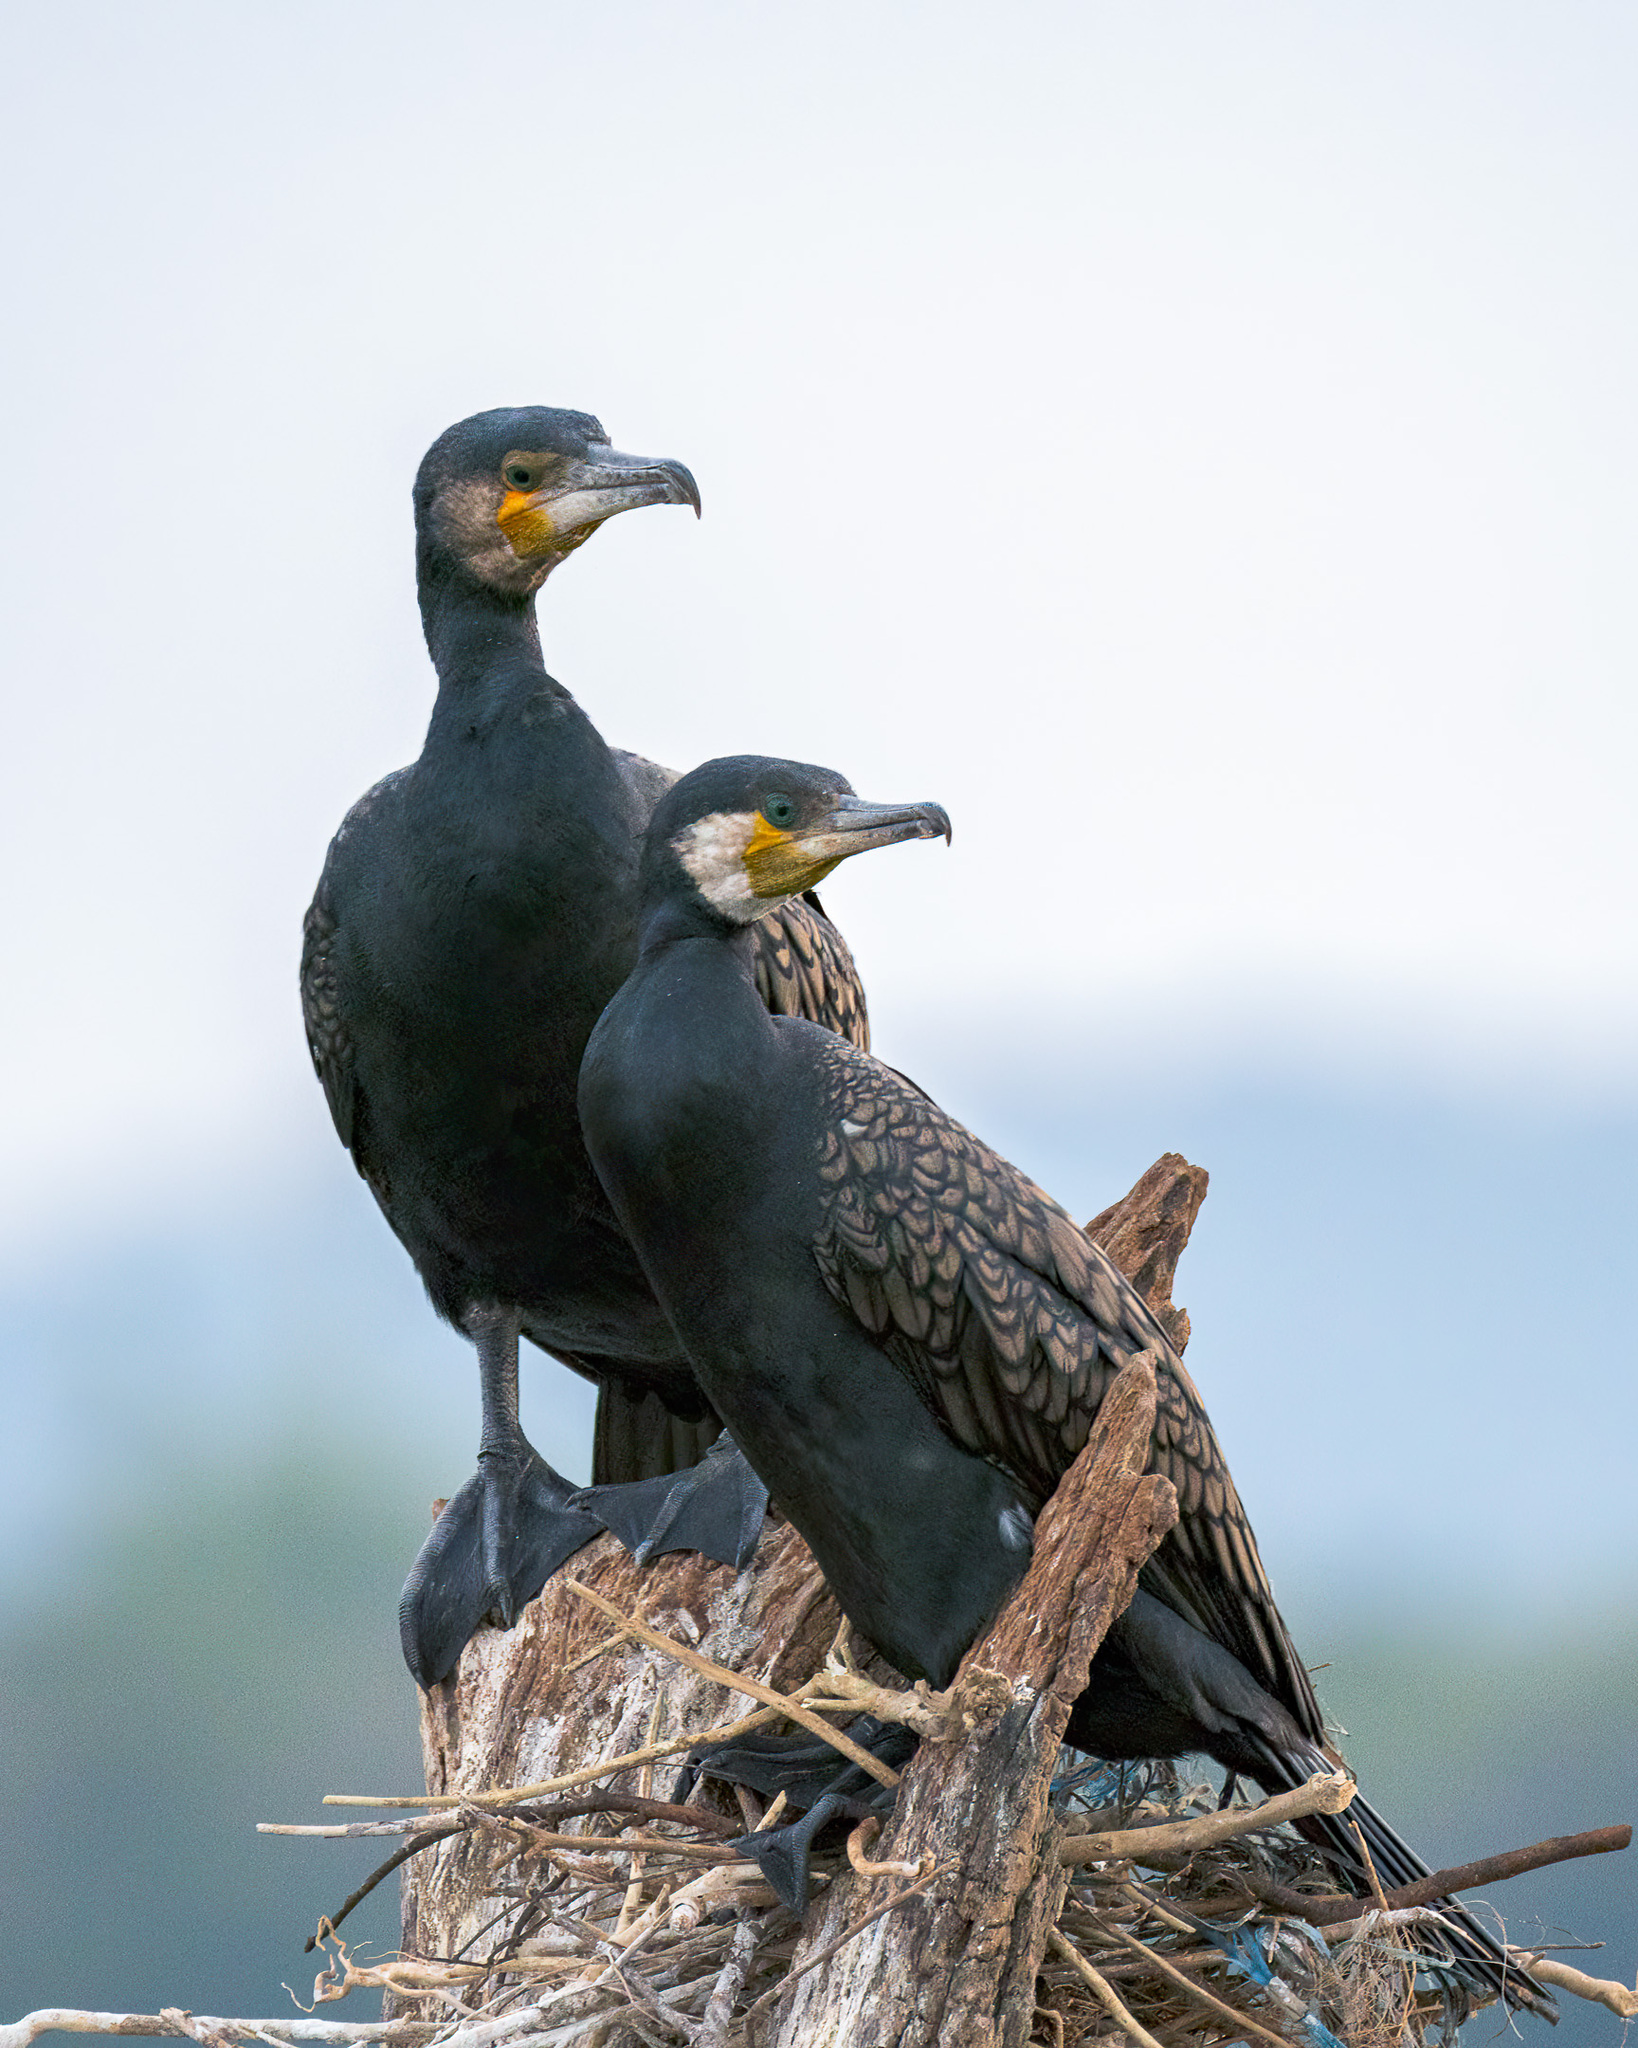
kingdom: Animalia
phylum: Chordata
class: Aves
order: Suliformes
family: Phalacrocoracidae
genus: Phalacrocorax
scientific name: Phalacrocorax carbo
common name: Great cormorant
